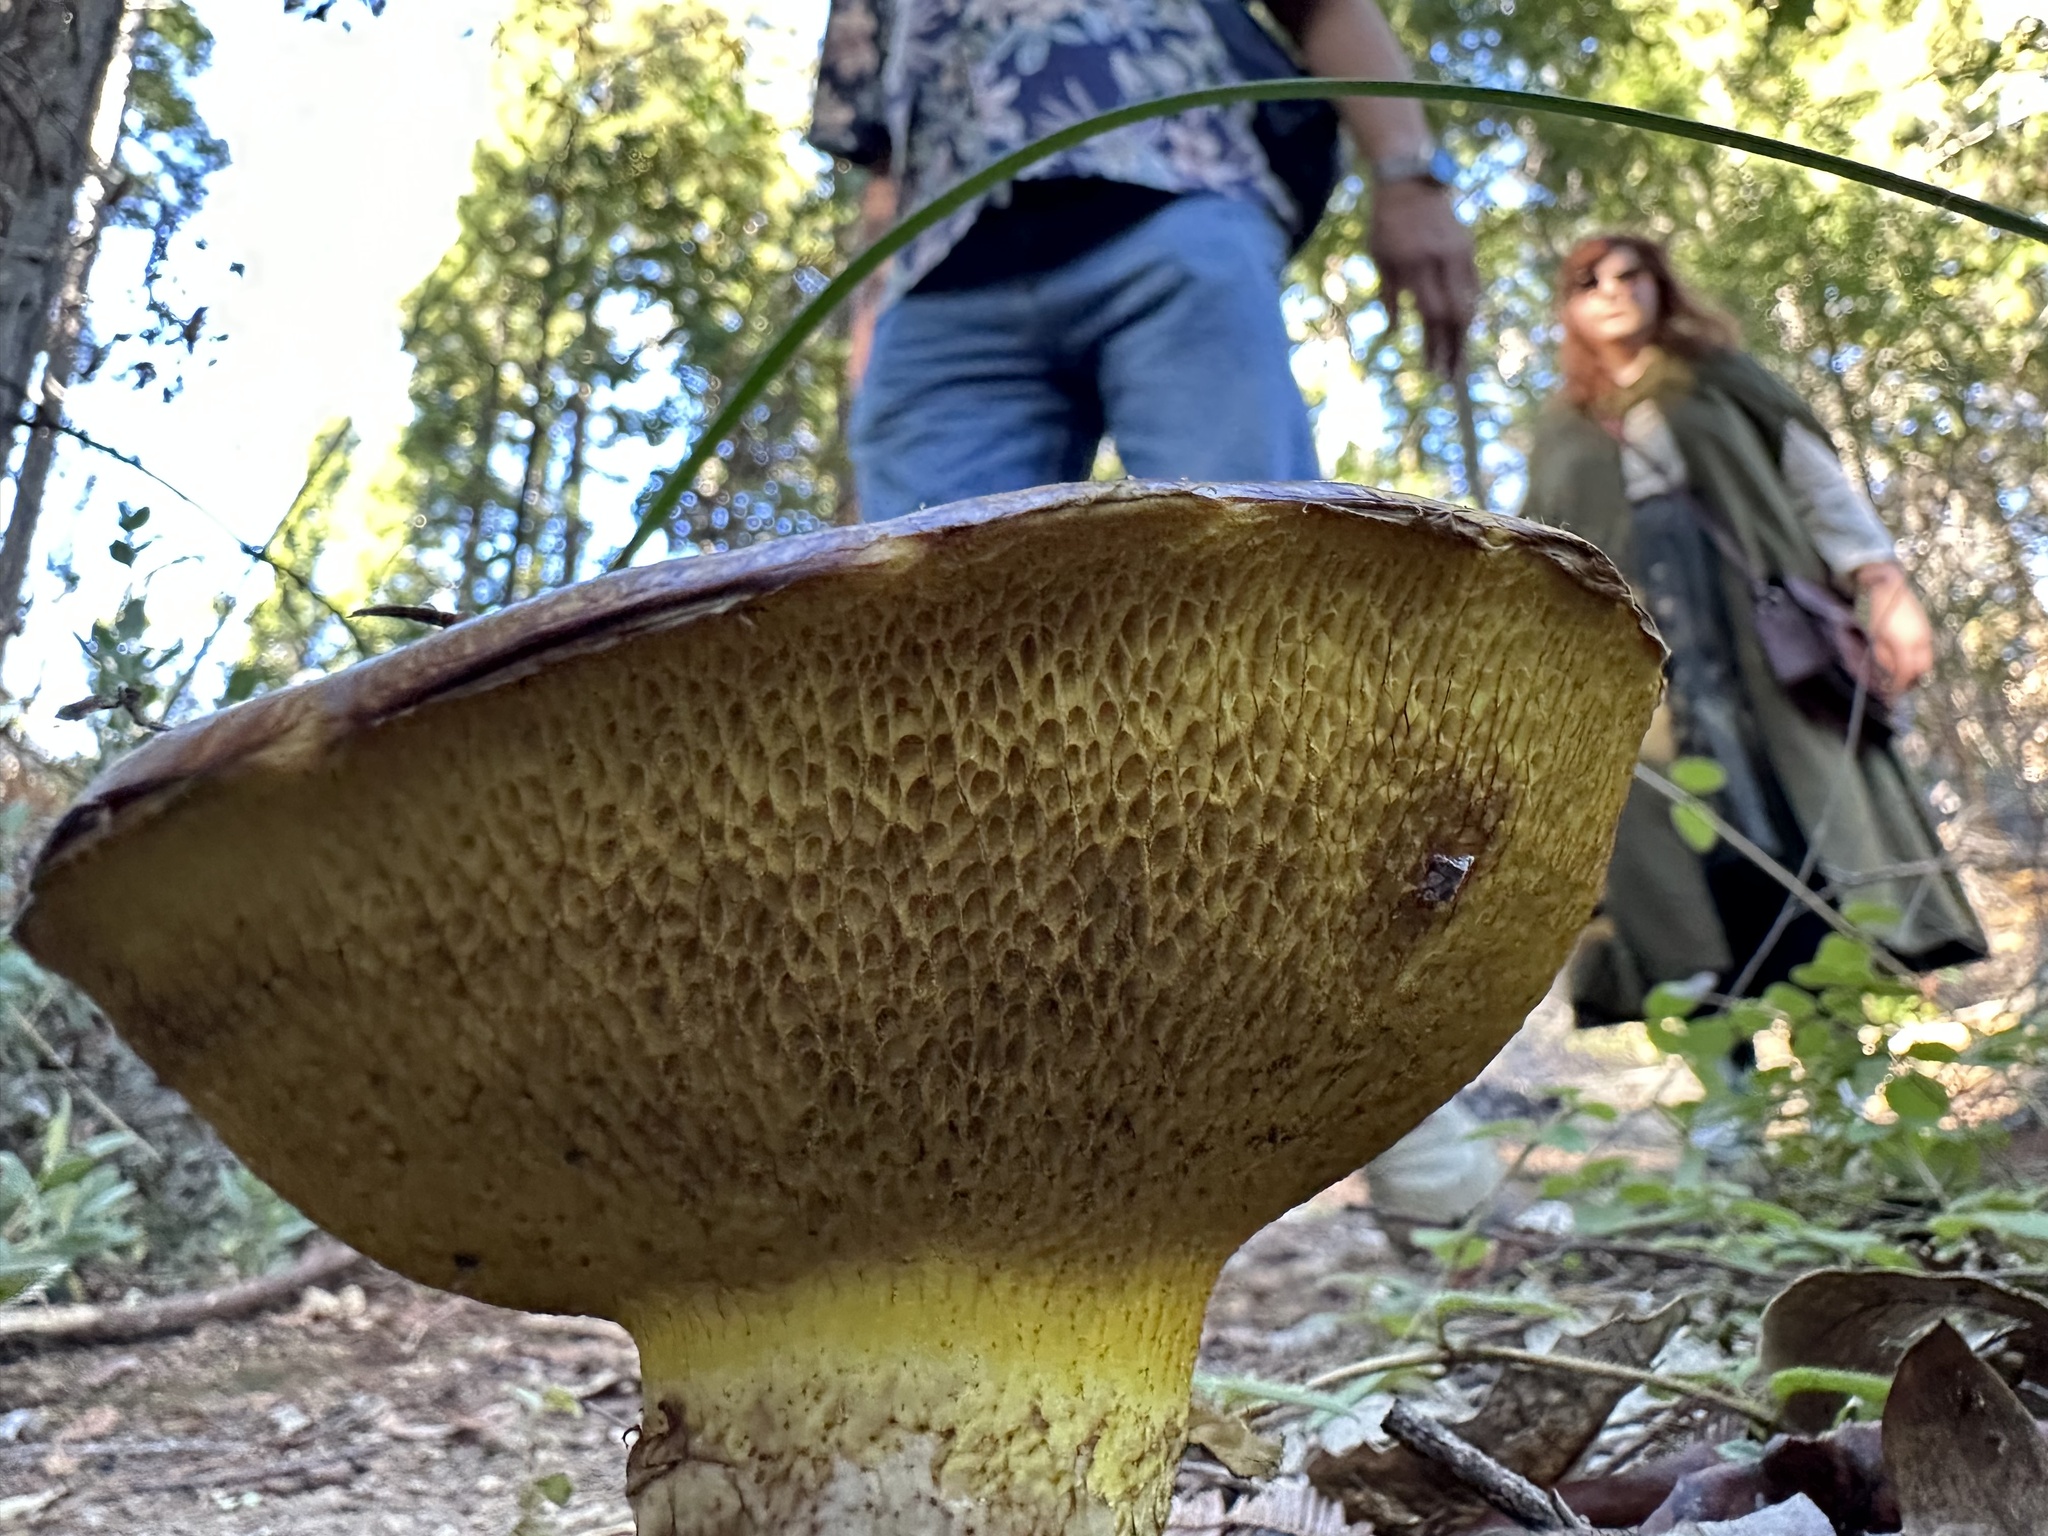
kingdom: Fungi
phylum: Basidiomycota
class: Agaricomycetes
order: Boletales
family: Suillaceae
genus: Suillus
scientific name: Suillus caerulescens
